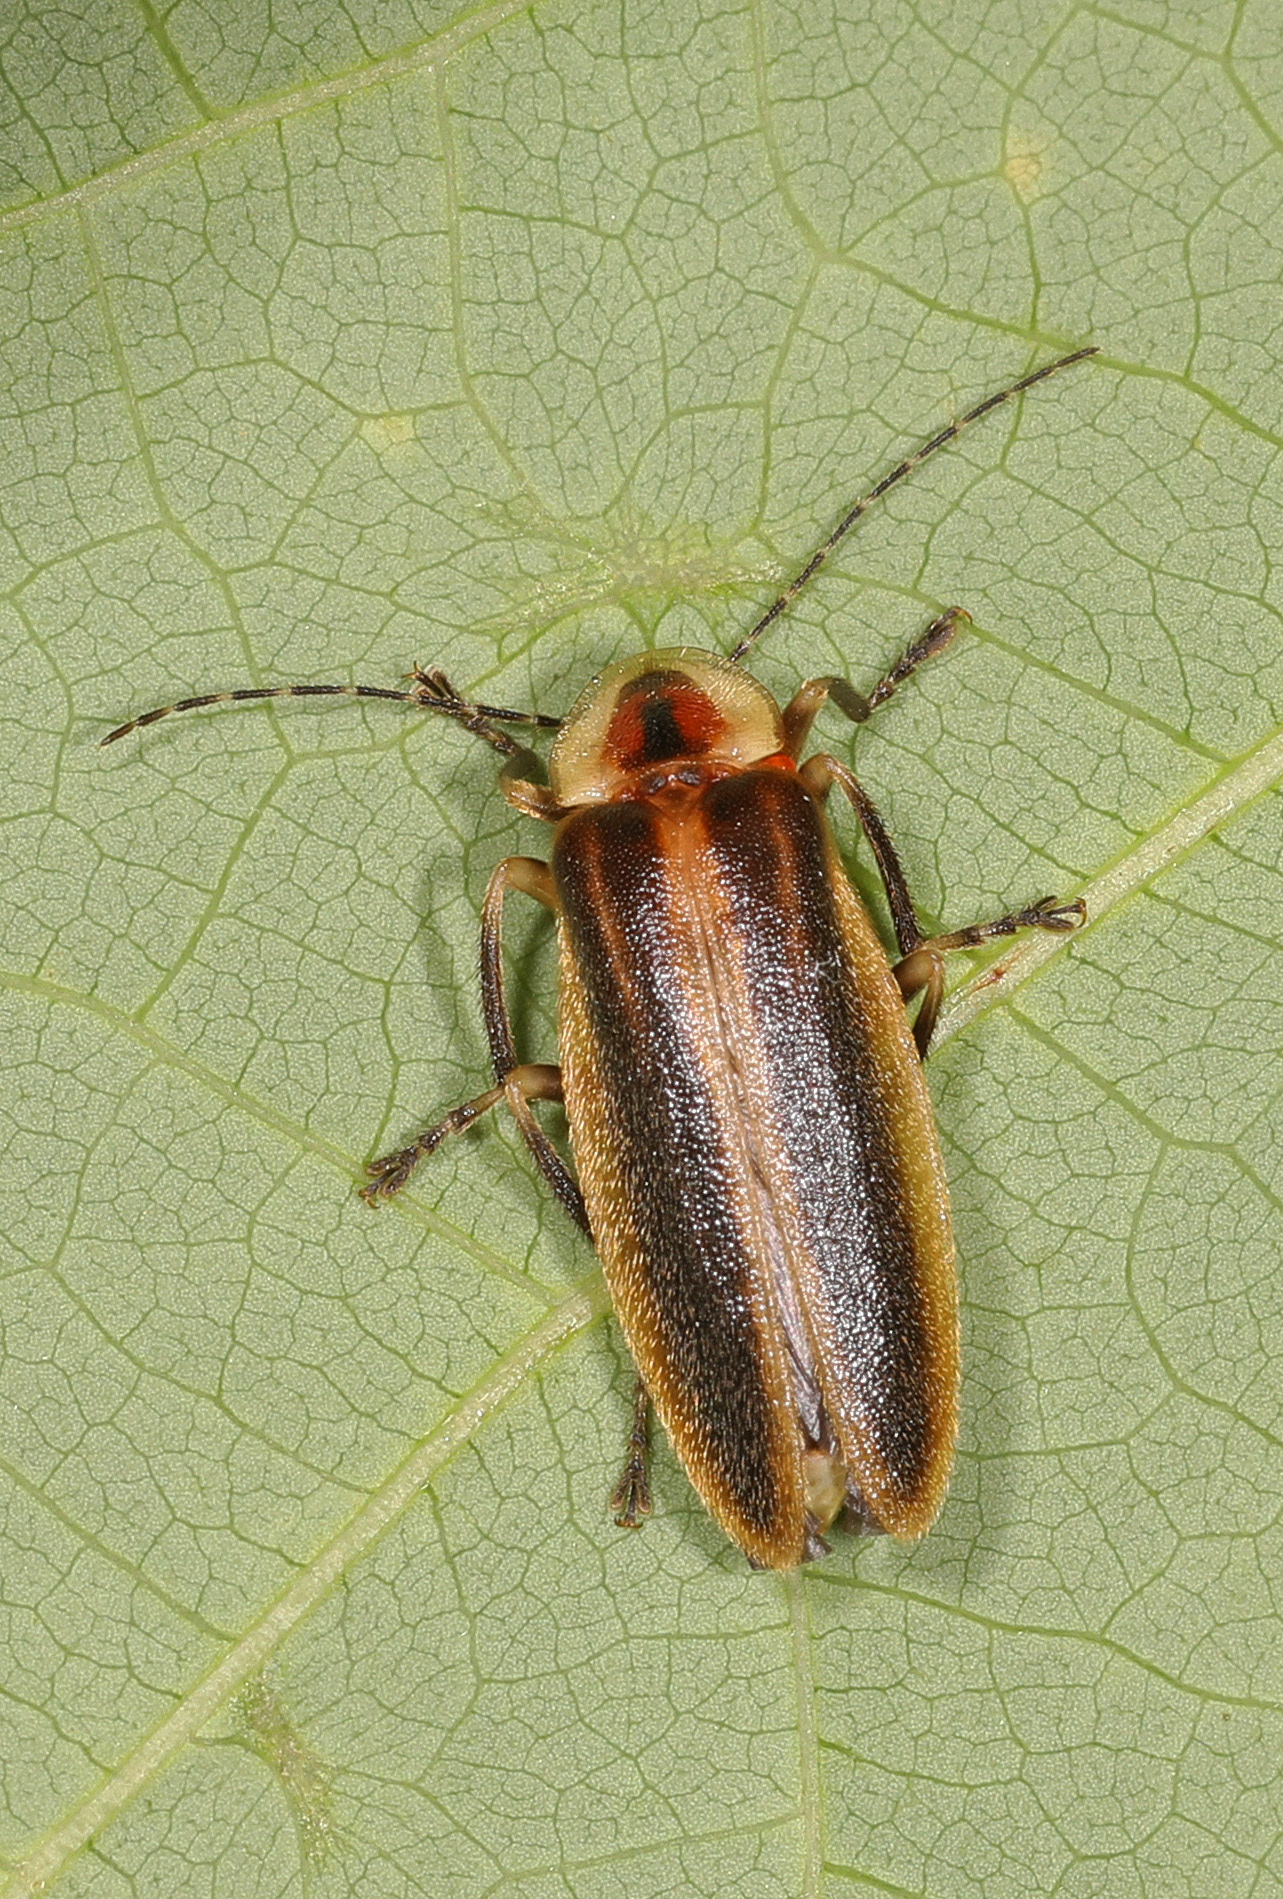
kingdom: Animalia
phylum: Arthropoda
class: Insecta
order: Coleoptera
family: Lampyridae
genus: Photuris
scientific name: Photuris
